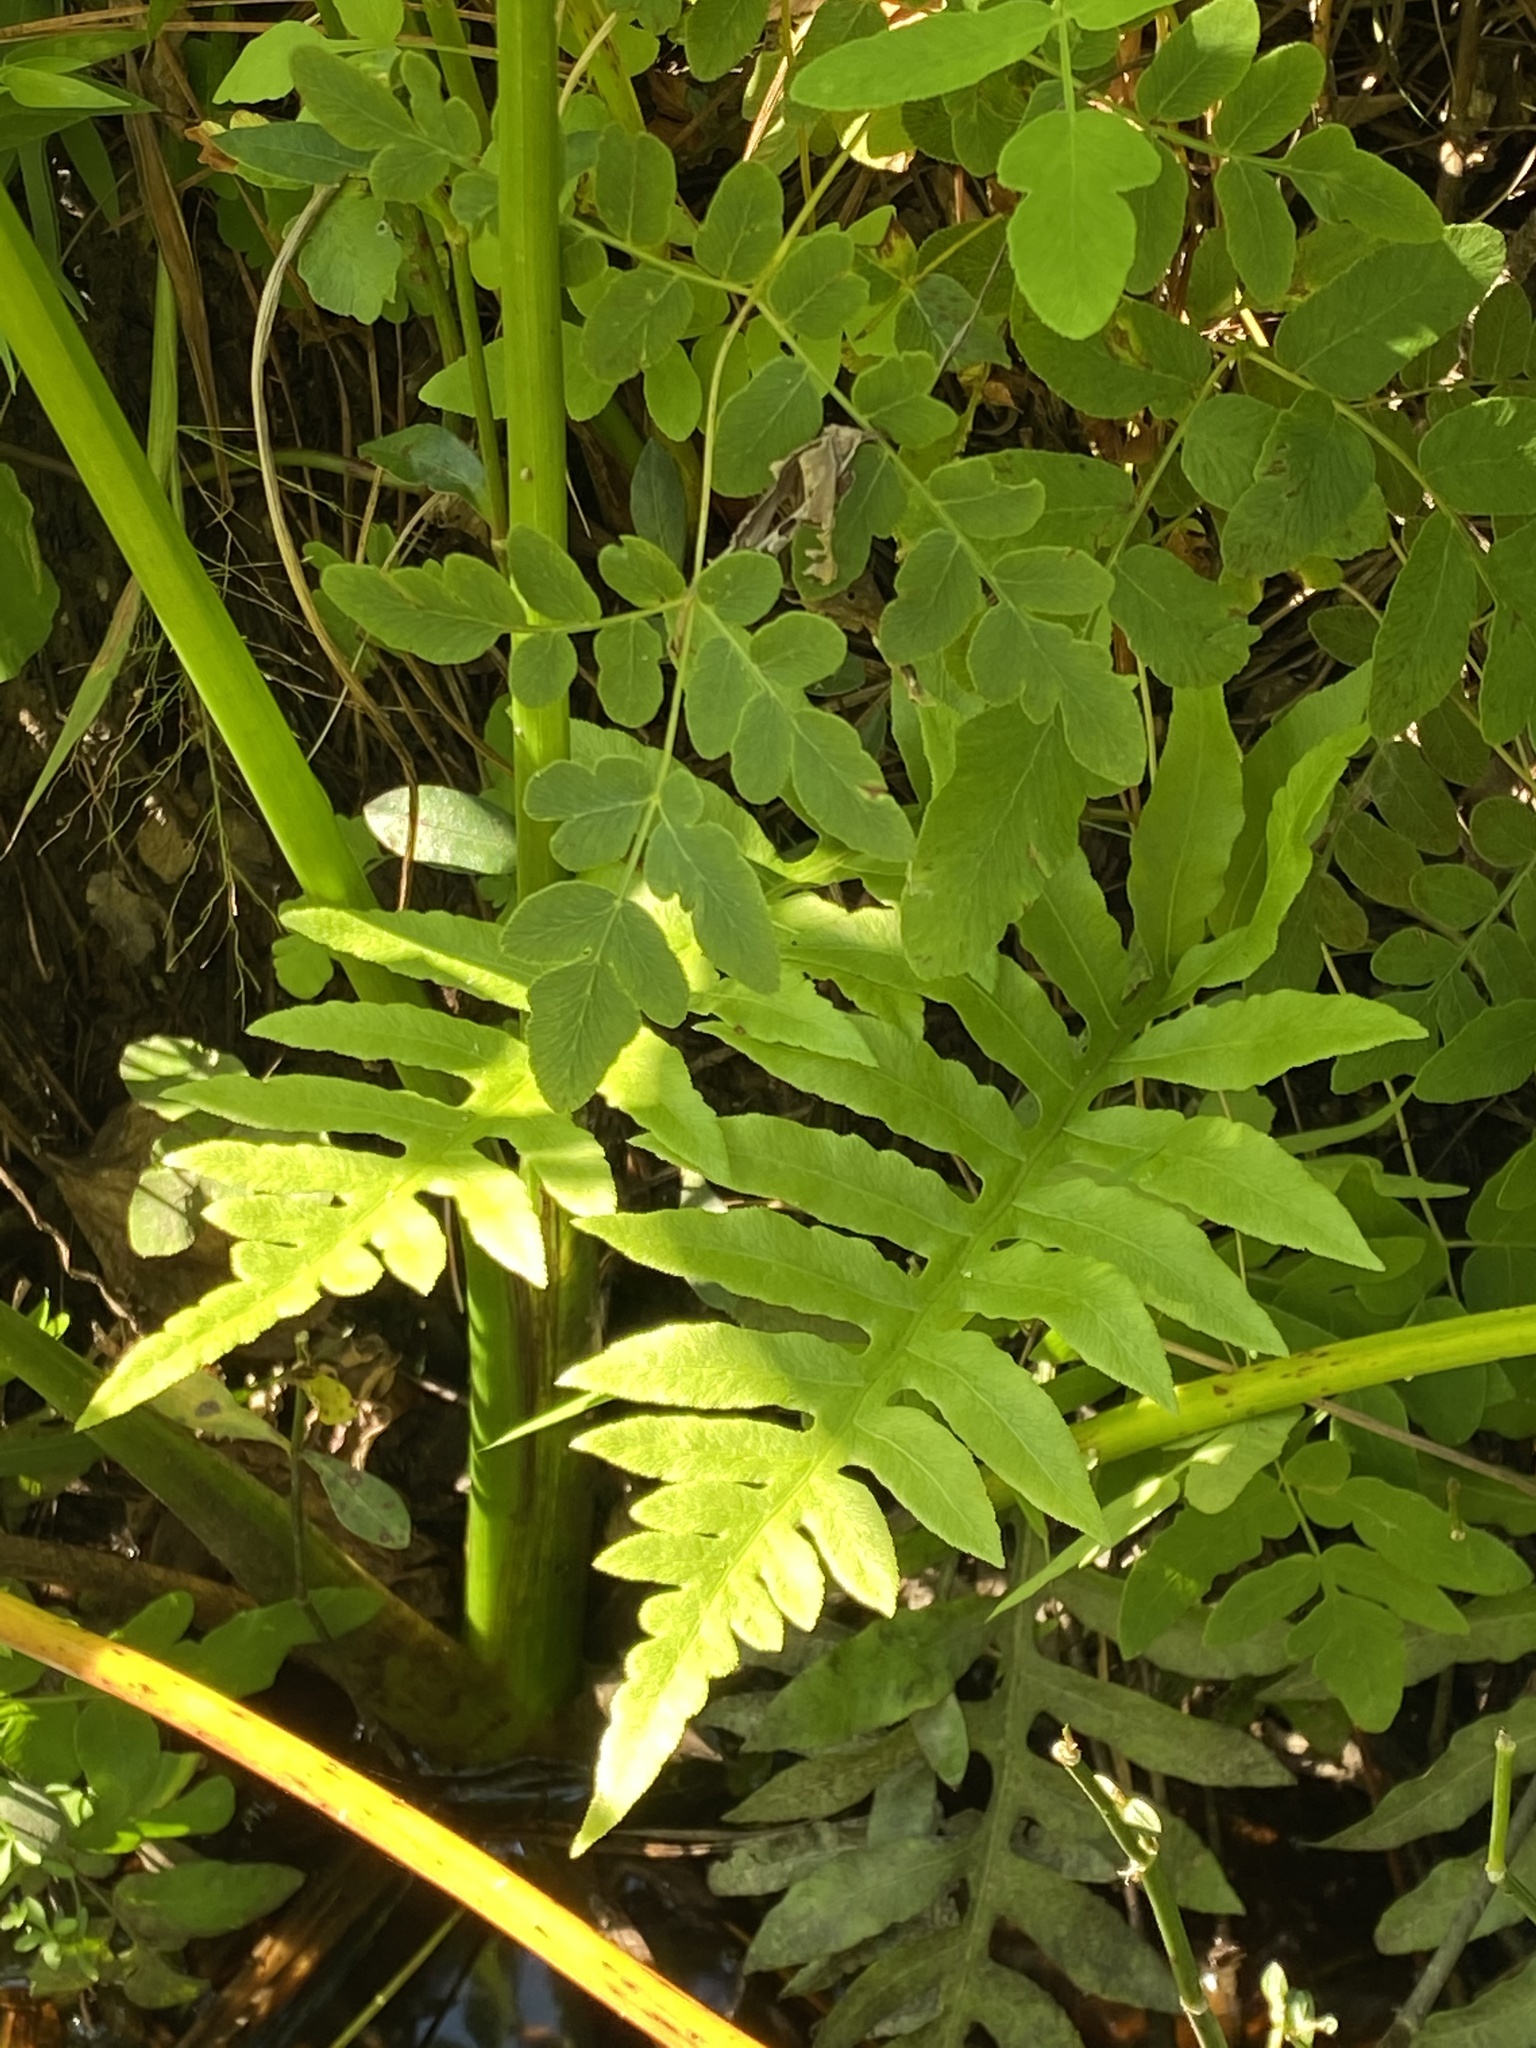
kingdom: Plantae
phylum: Tracheophyta
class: Polypodiopsida
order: Polypodiales
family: Blechnaceae
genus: Lorinseria
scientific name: Lorinseria areolata
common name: Dwarf chain fern
